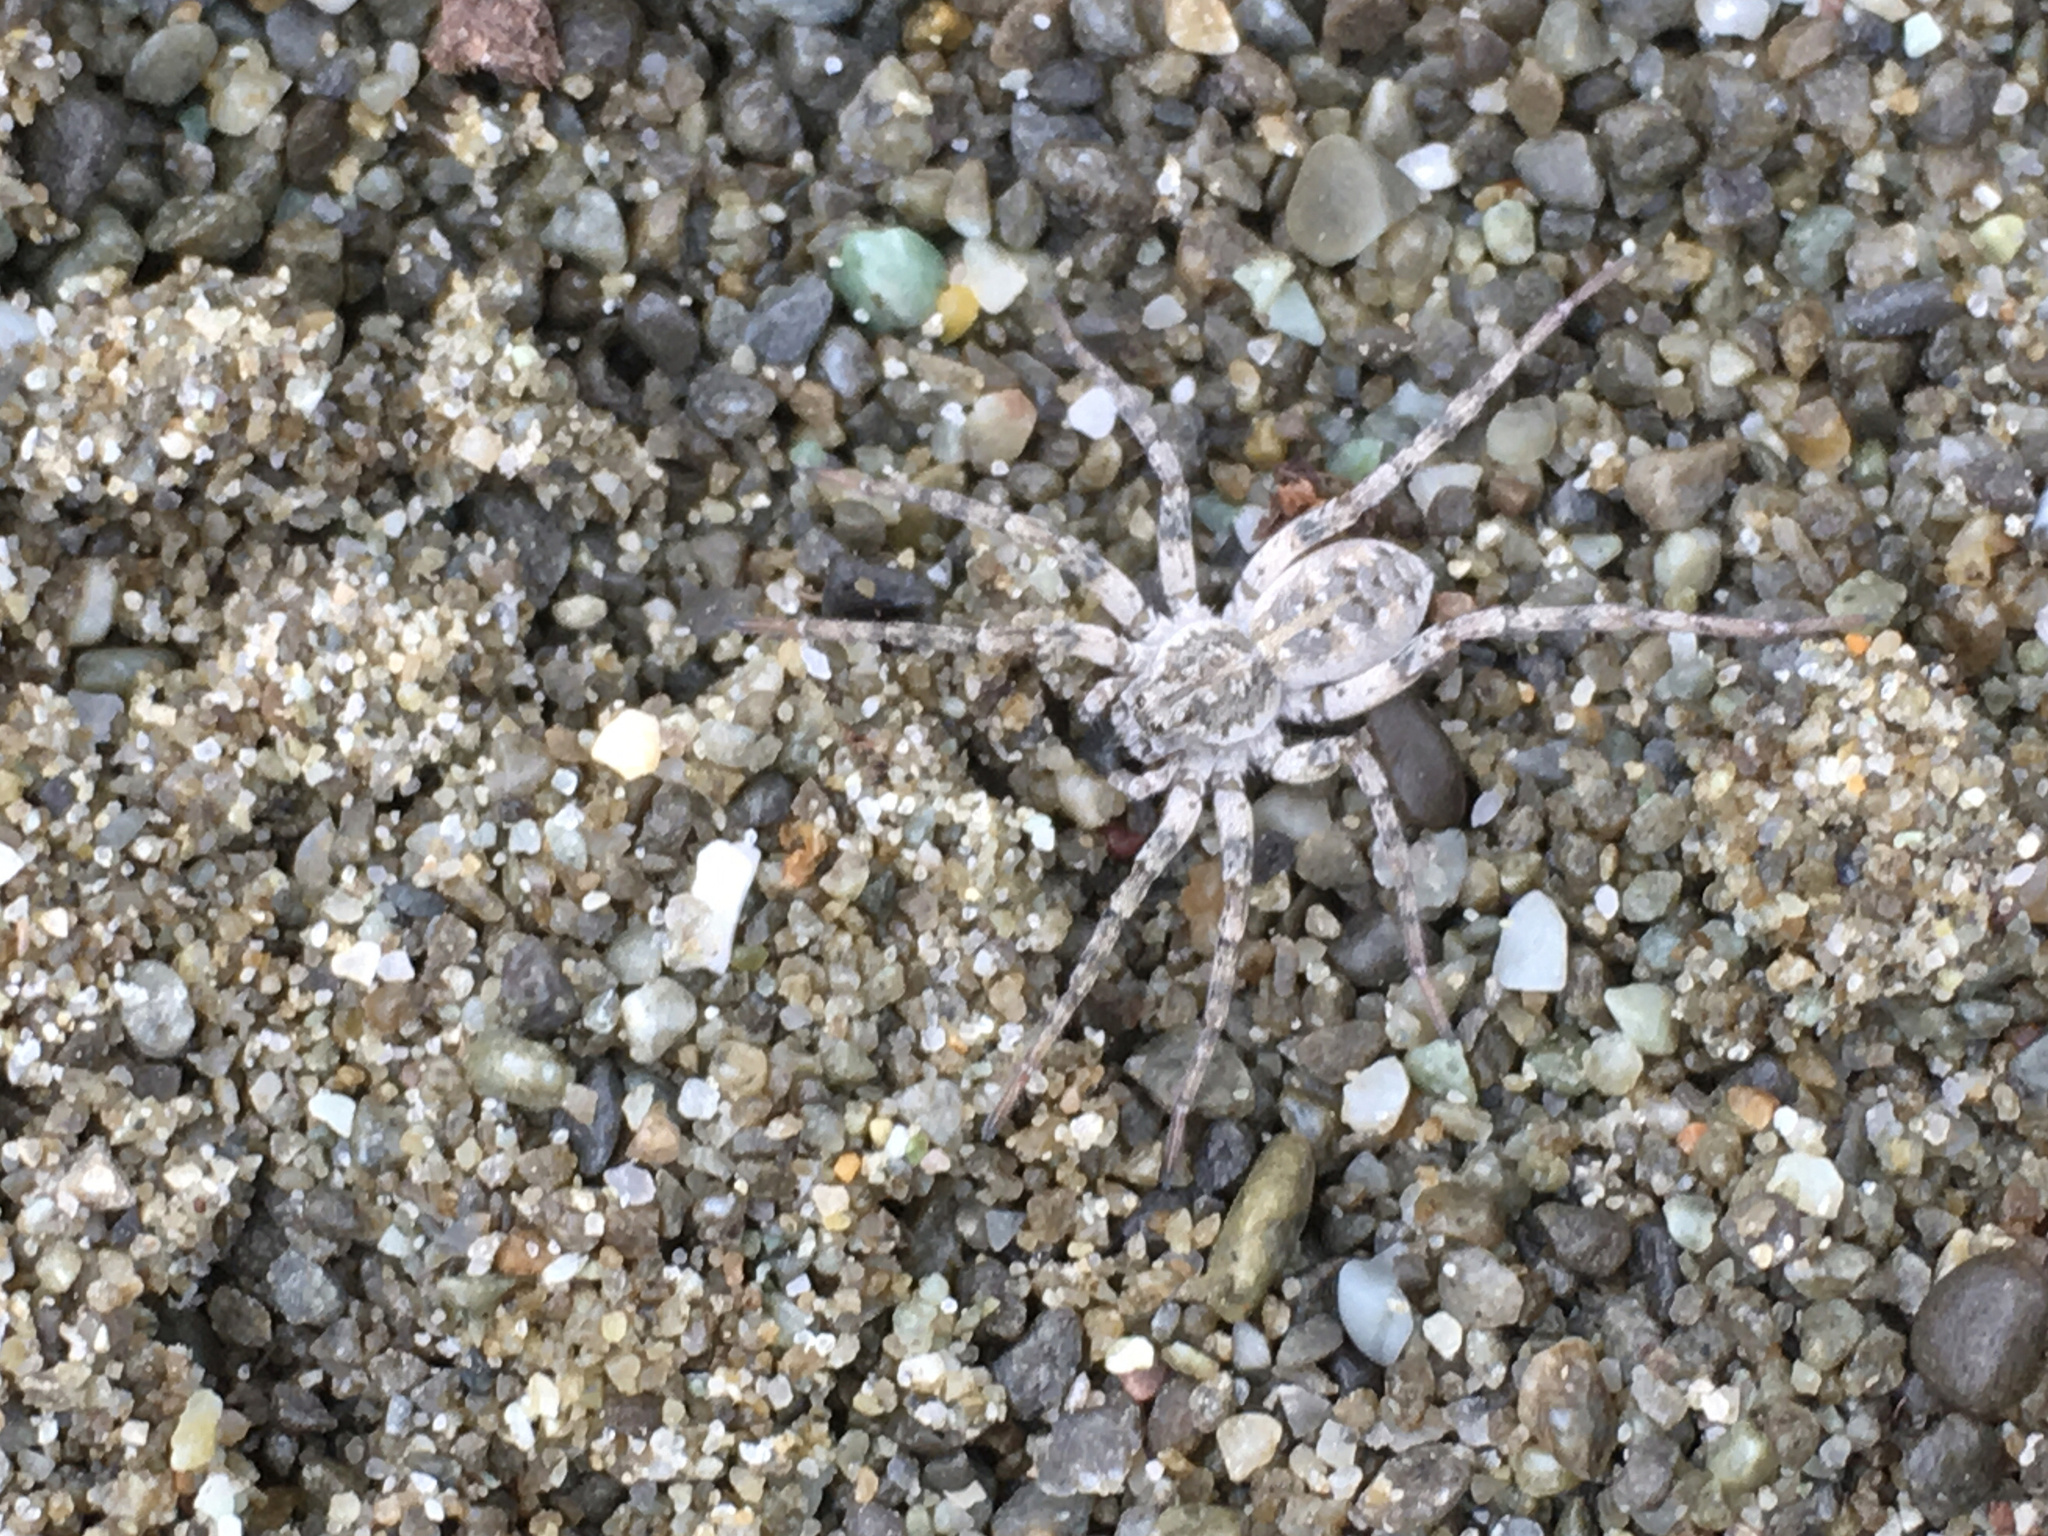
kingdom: Animalia
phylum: Arthropoda
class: Arachnida
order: Araneae
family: Lycosidae
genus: Anoteropsis
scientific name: Anoteropsis litoralis
